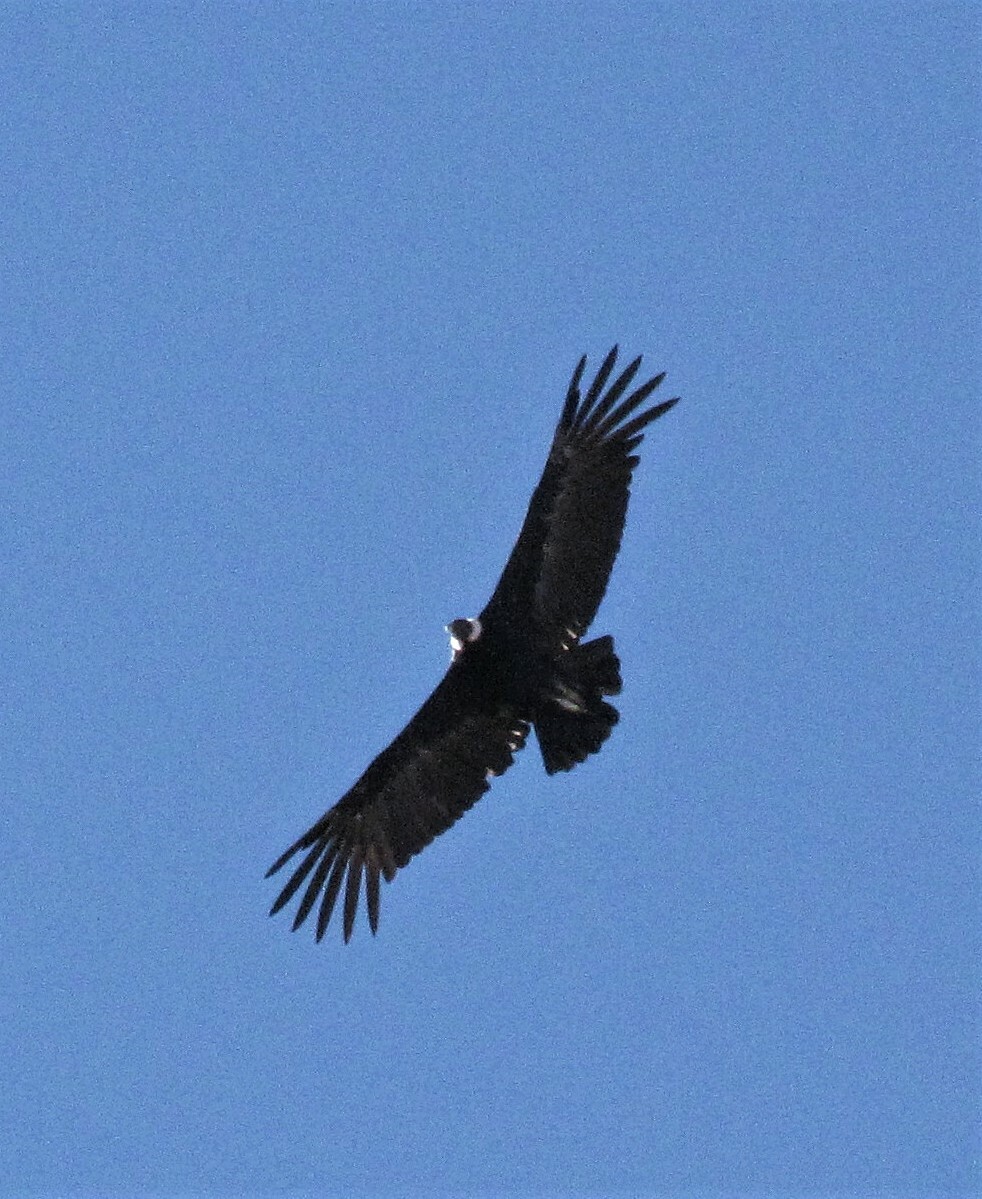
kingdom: Animalia
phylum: Chordata
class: Aves
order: Accipitriformes
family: Cathartidae
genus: Vultur
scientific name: Vultur gryphus
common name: Andean condor
